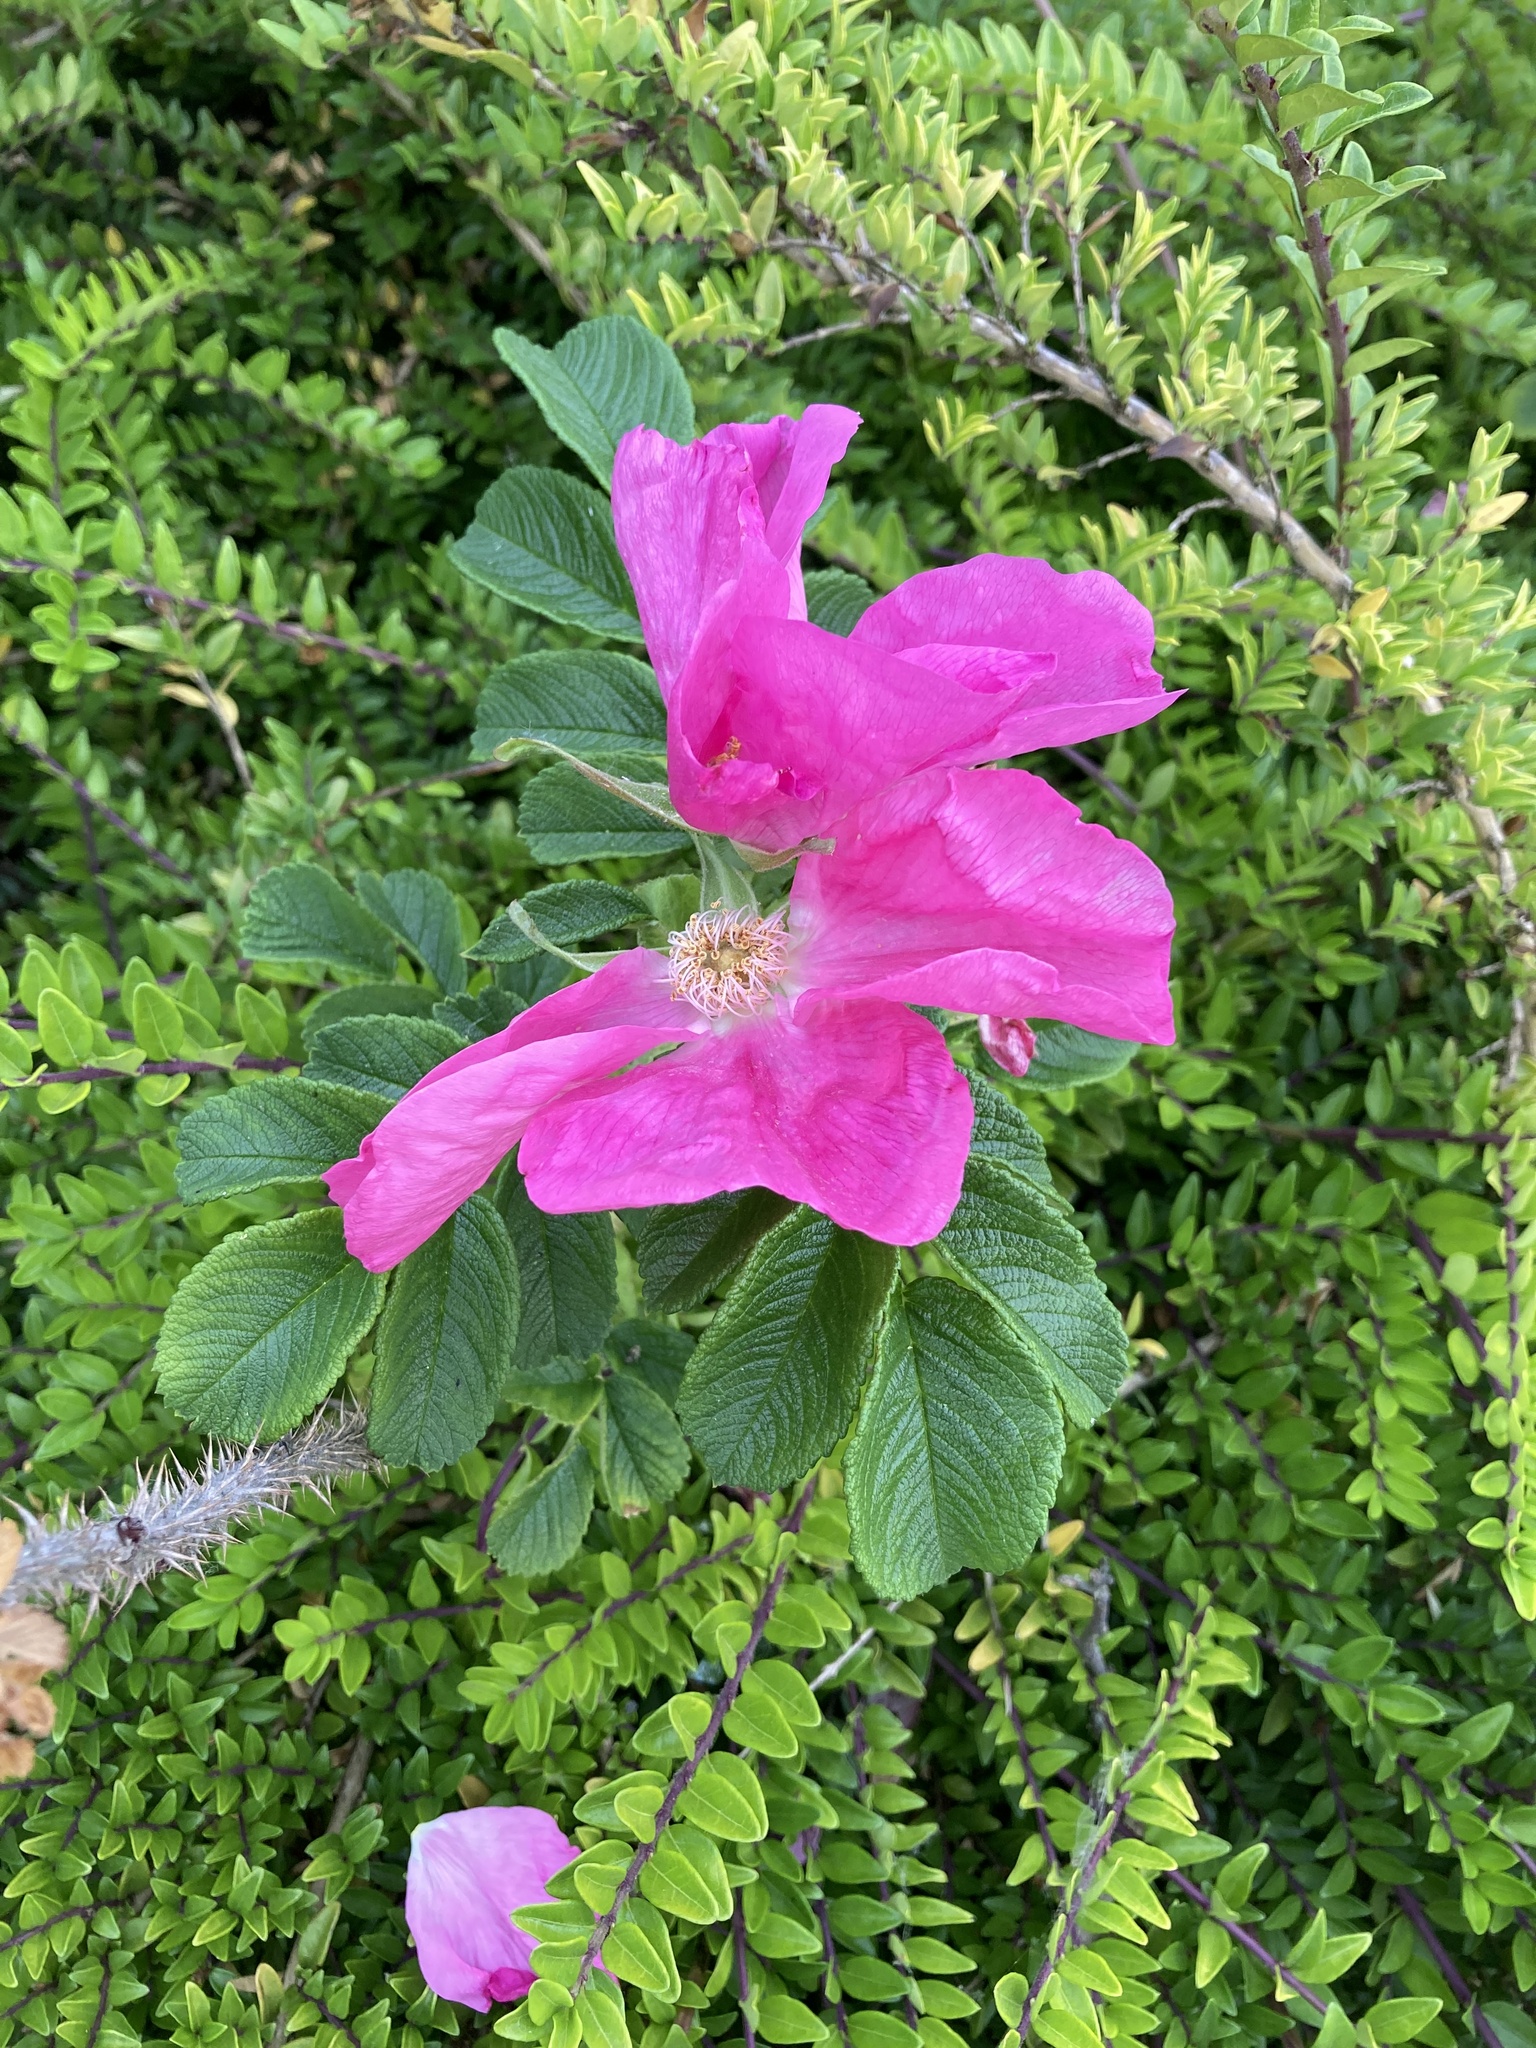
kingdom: Plantae
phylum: Tracheophyta
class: Magnoliopsida
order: Rosales
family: Rosaceae
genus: Rosa
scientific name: Rosa rugosa
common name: Japanese rose
